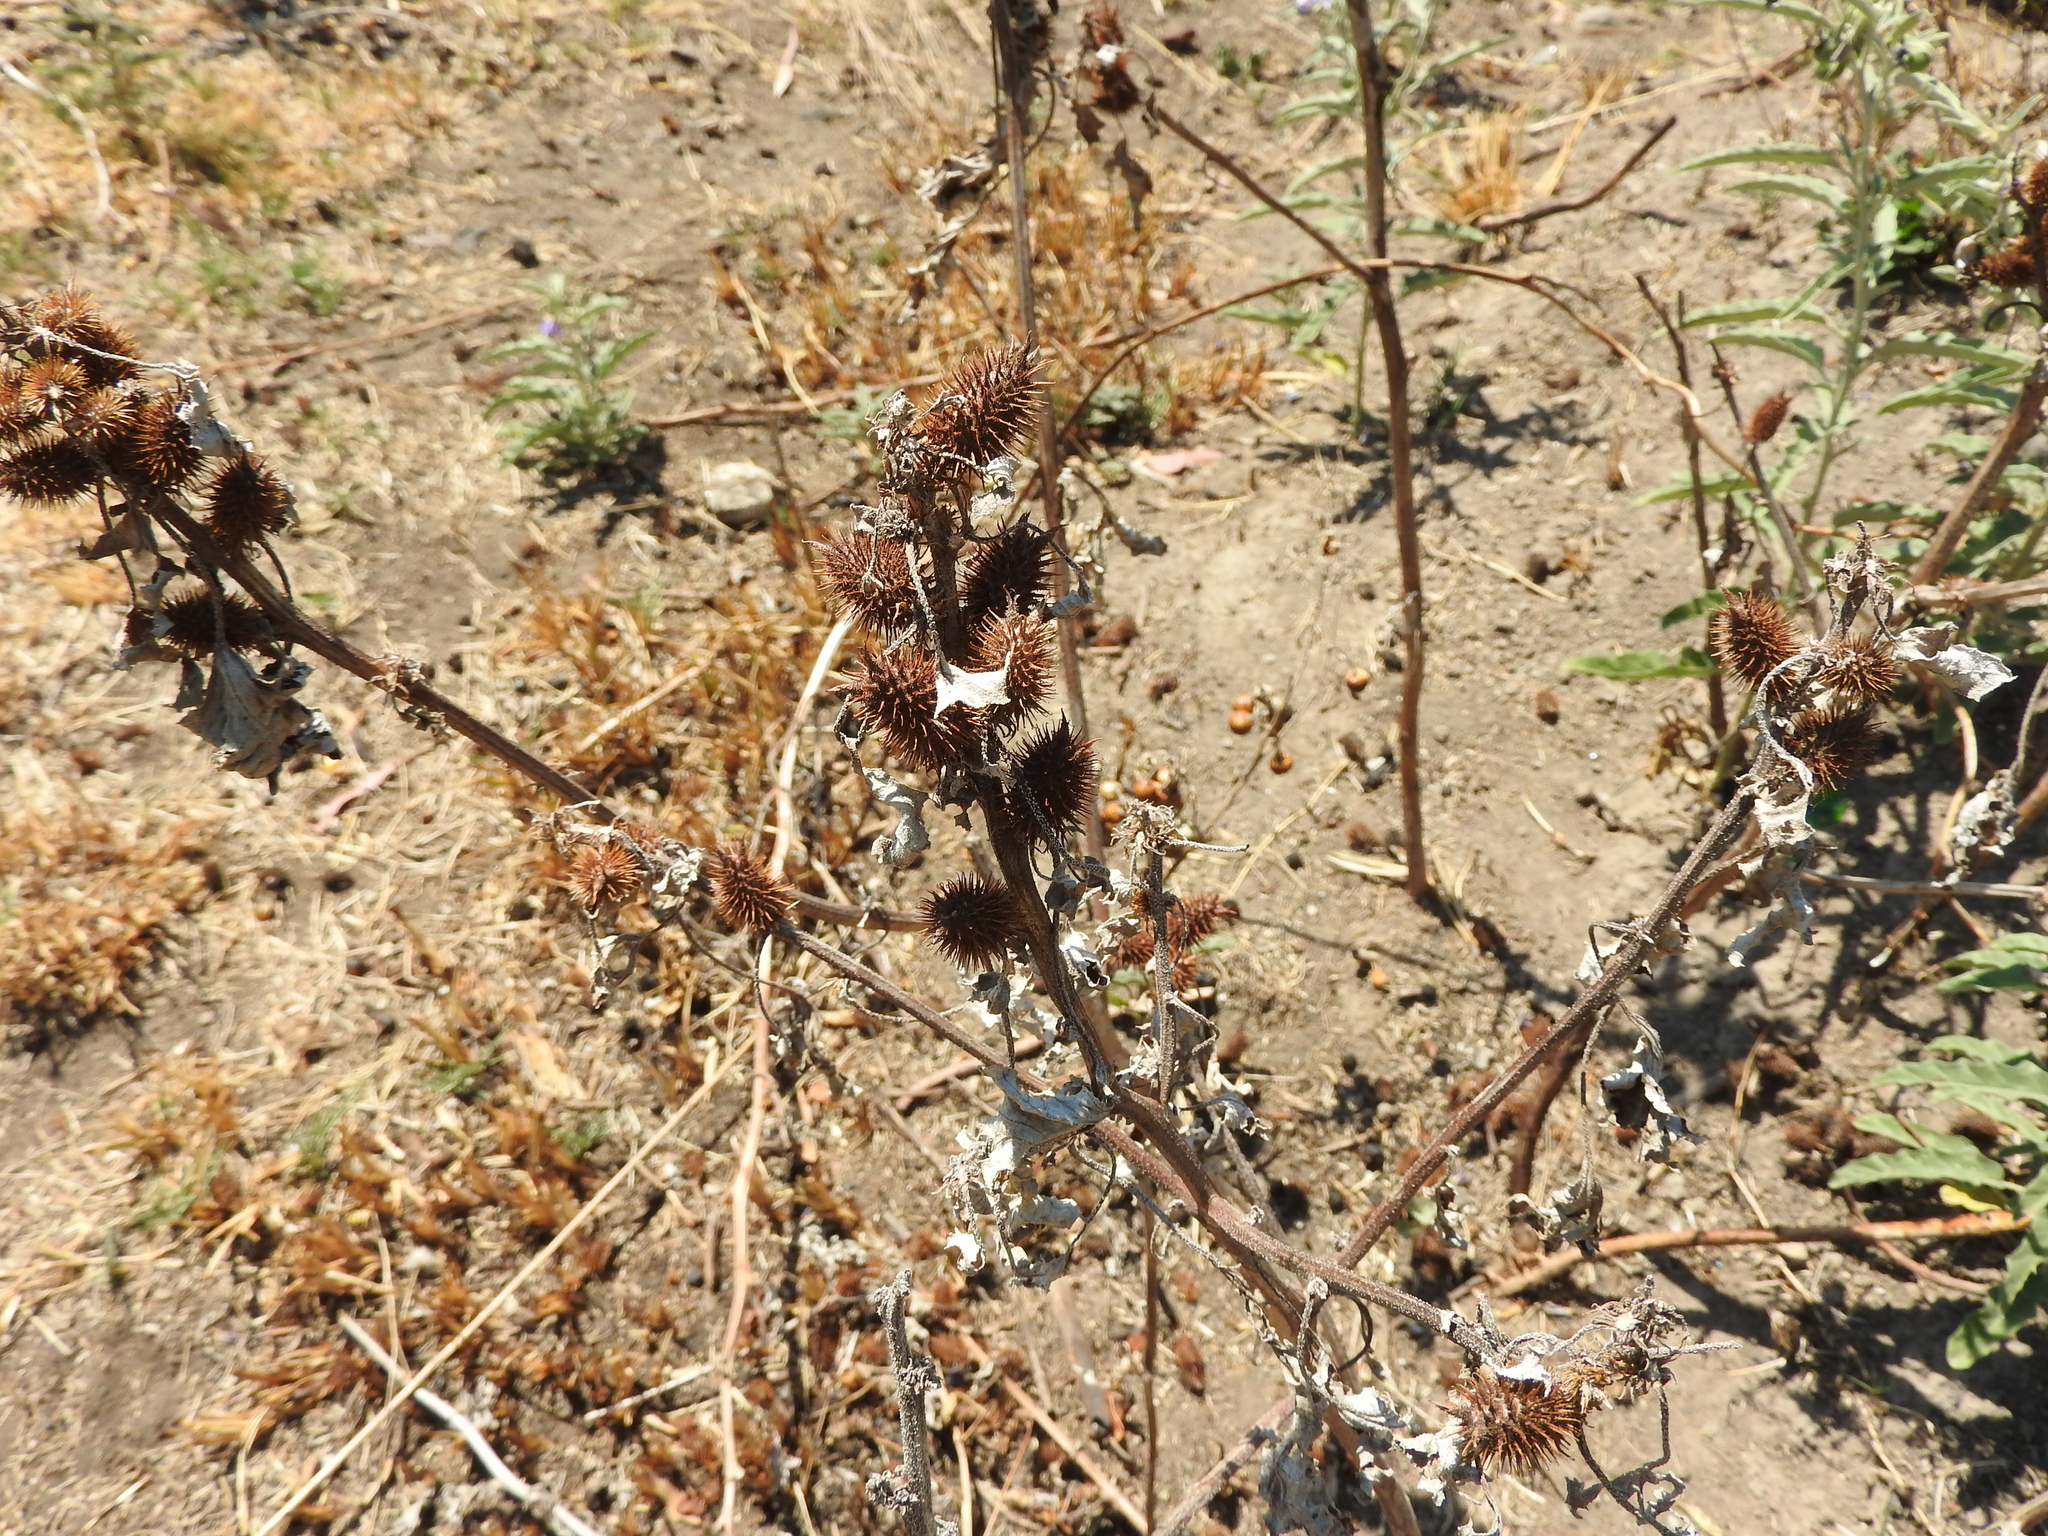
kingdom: Plantae
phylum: Tracheophyta
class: Magnoliopsida
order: Asterales
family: Asteraceae
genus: Xanthium
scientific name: Xanthium strumarium
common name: Rough cocklebur
